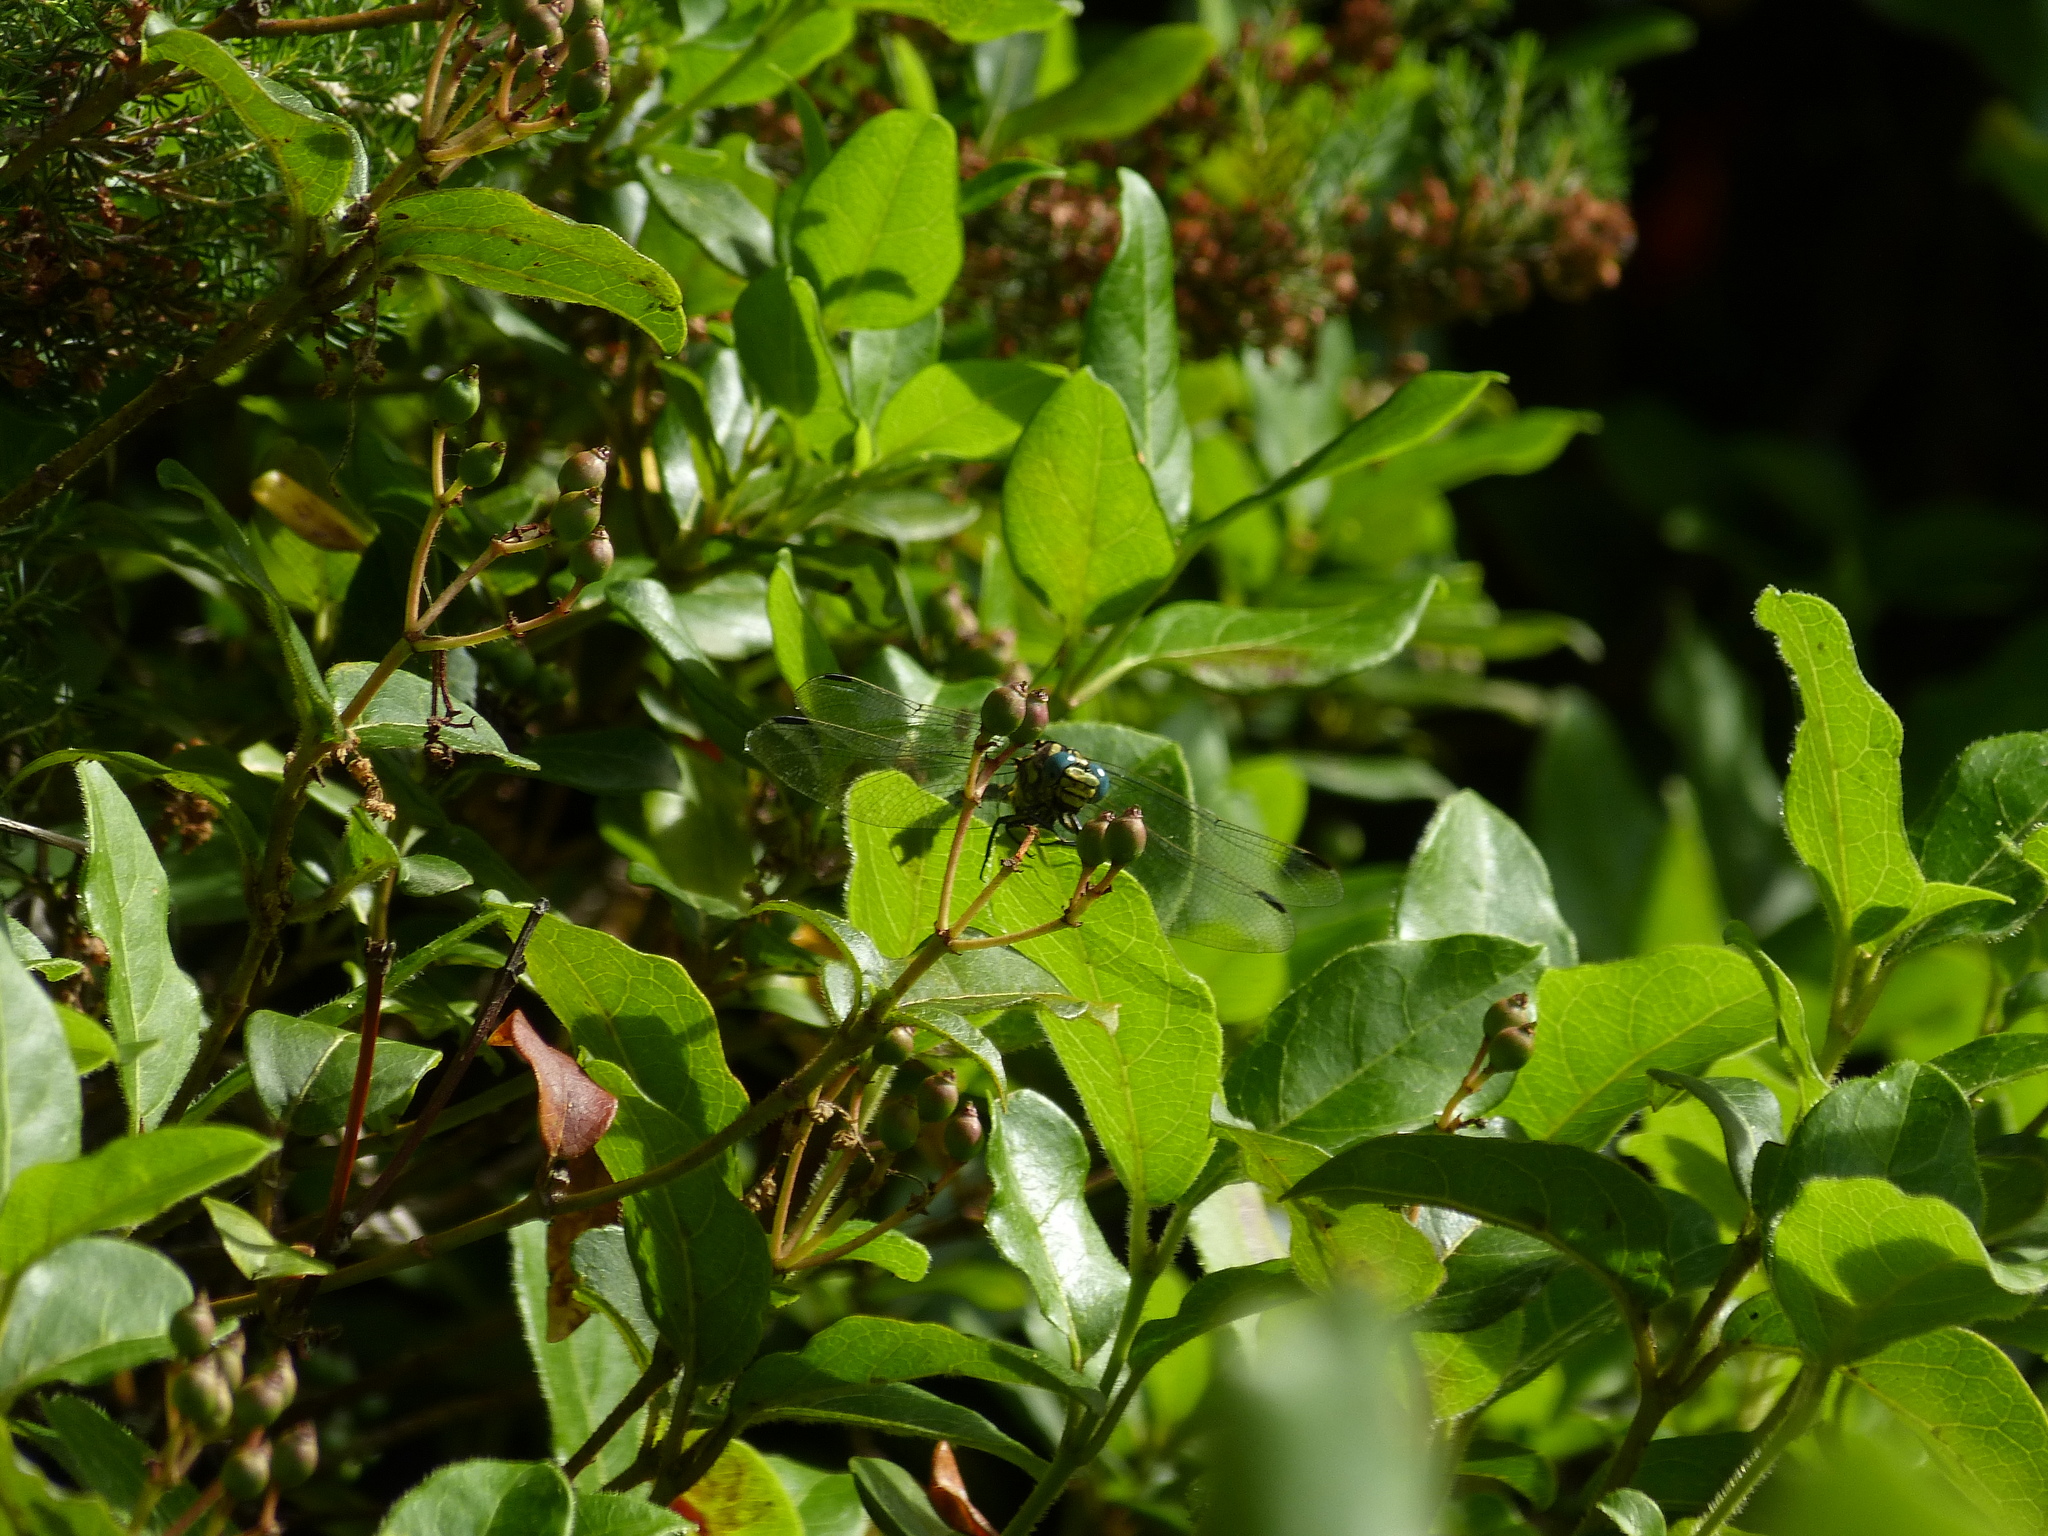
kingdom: Animalia
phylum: Arthropoda
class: Insecta
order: Odonata
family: Gomphidae
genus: Onychogomphus
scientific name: Onychogomphus uncatus
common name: Large pincertail
